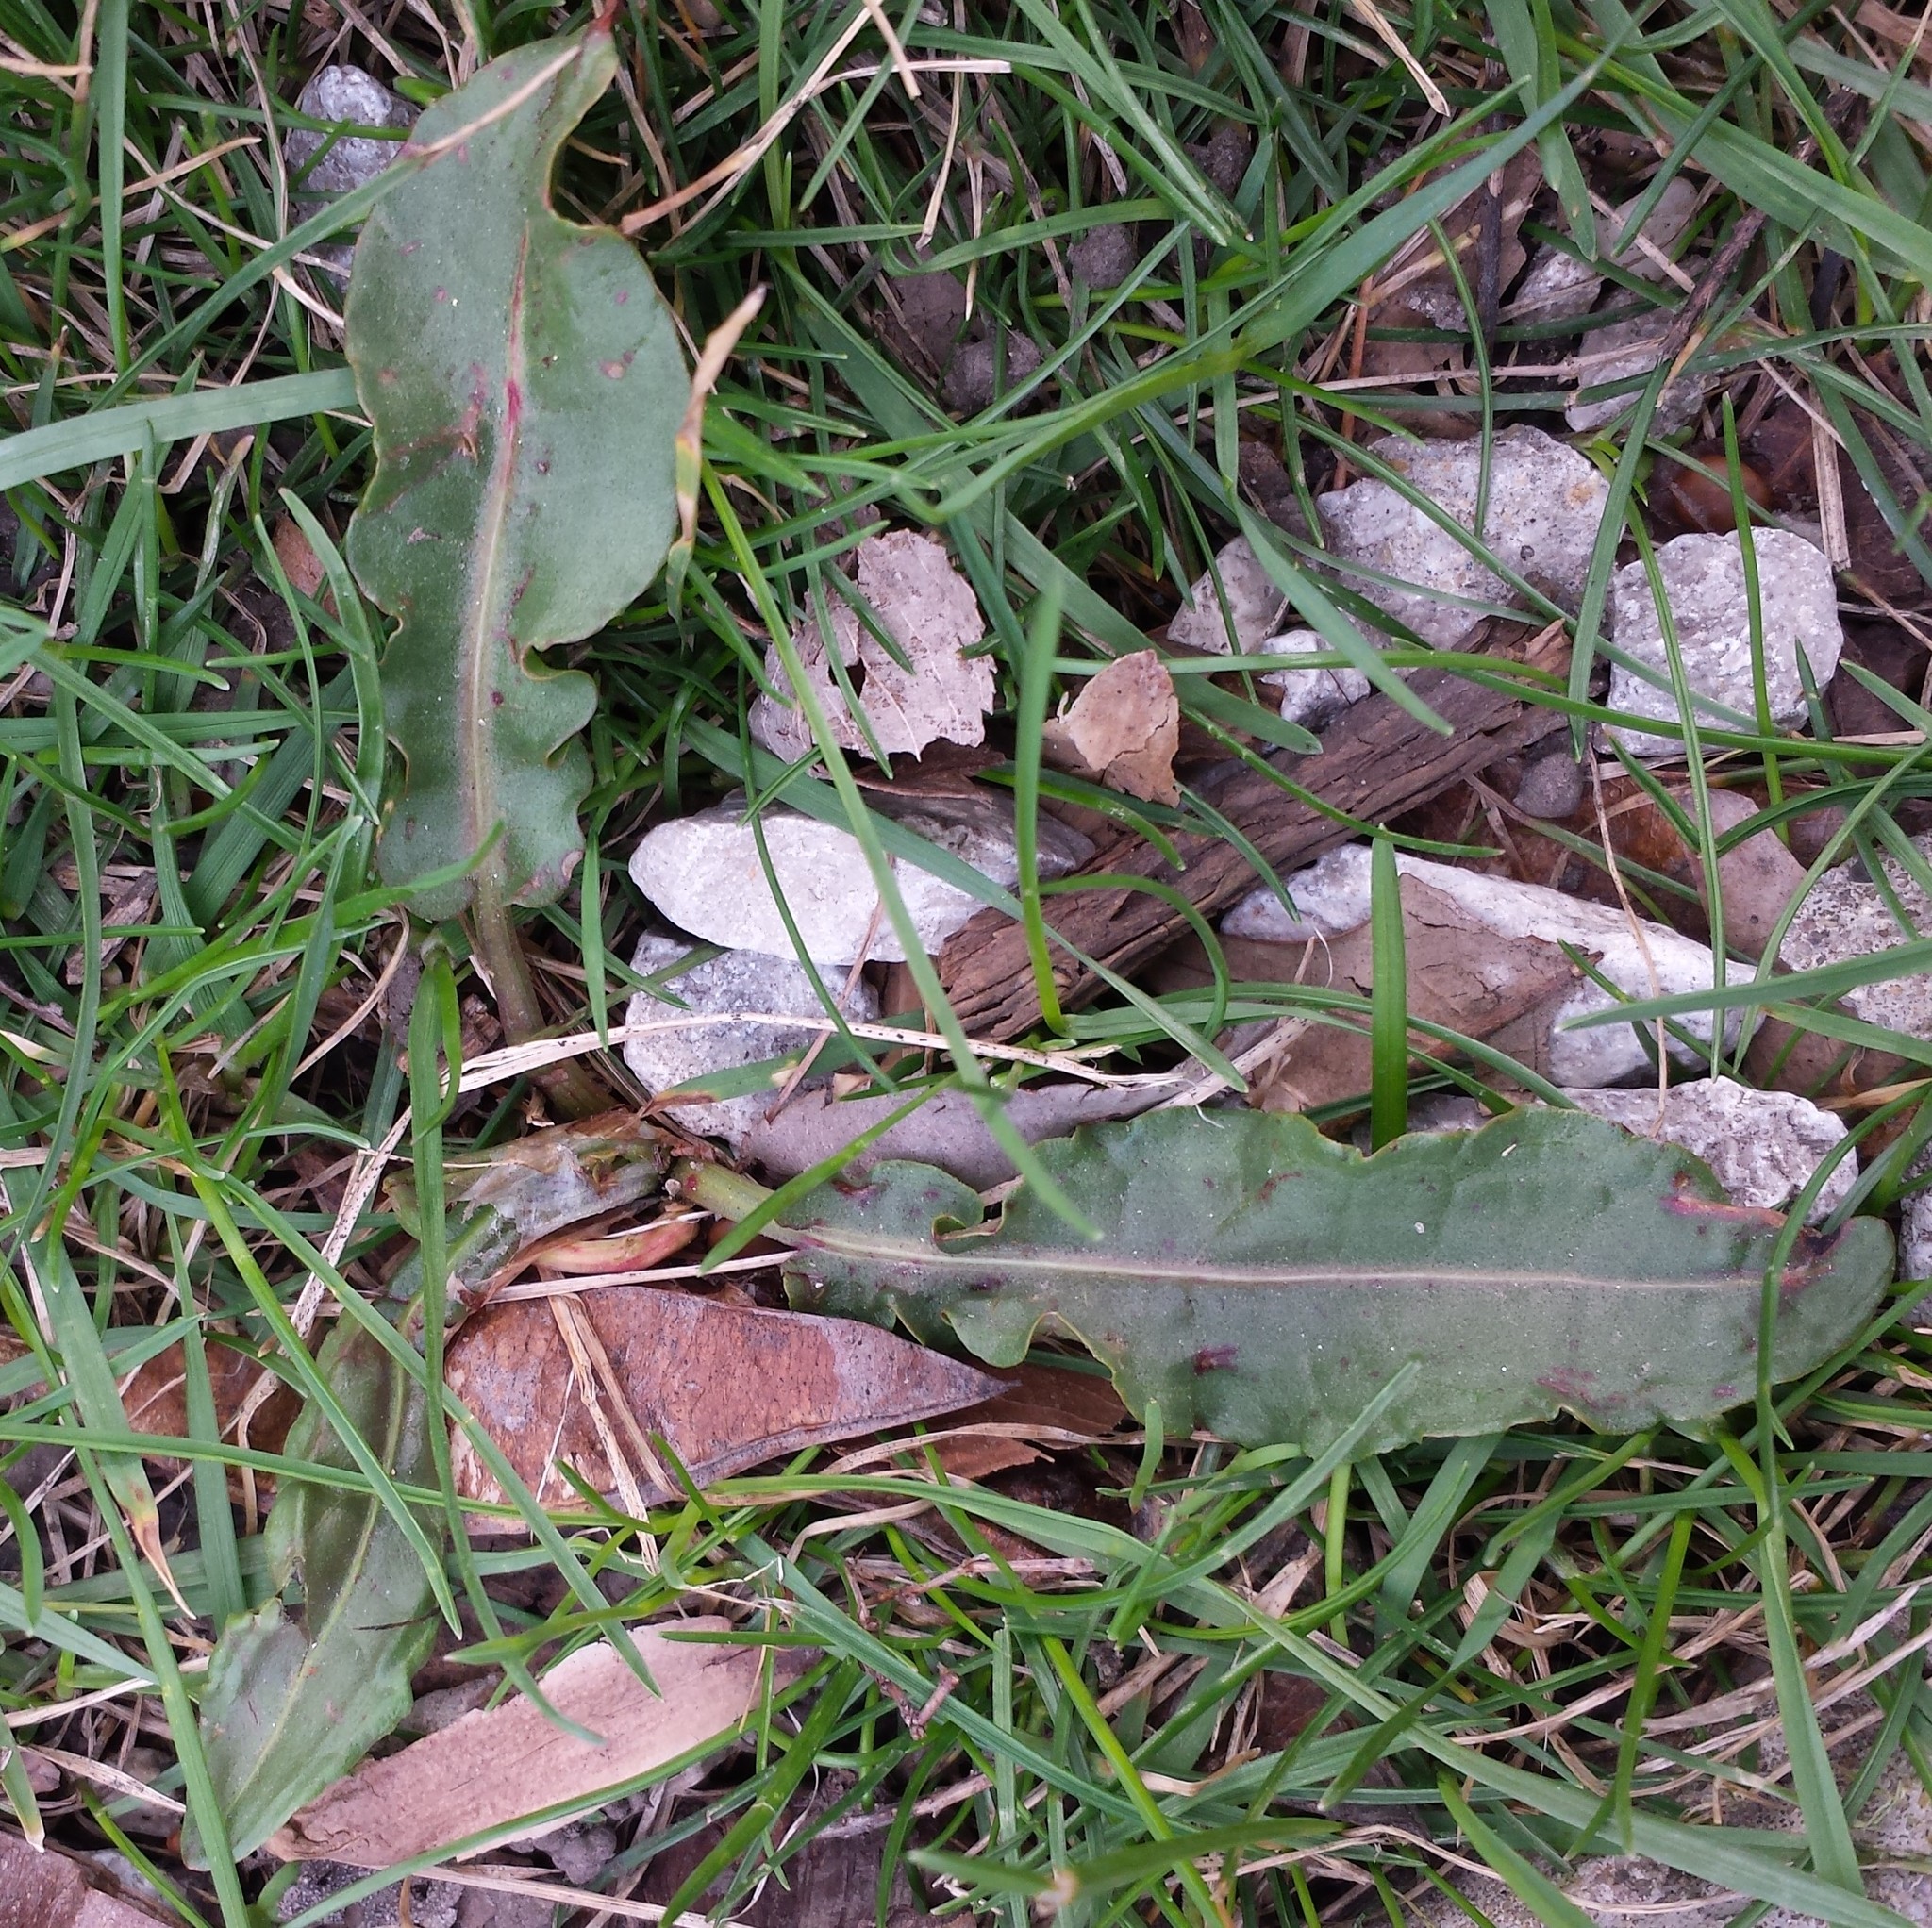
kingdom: Plantae
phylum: Tracheophyta
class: Magnoliopsida
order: Caryophyllales
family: Polygonaceae
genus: Rumex
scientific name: Rumex crispus
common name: Curled dock
